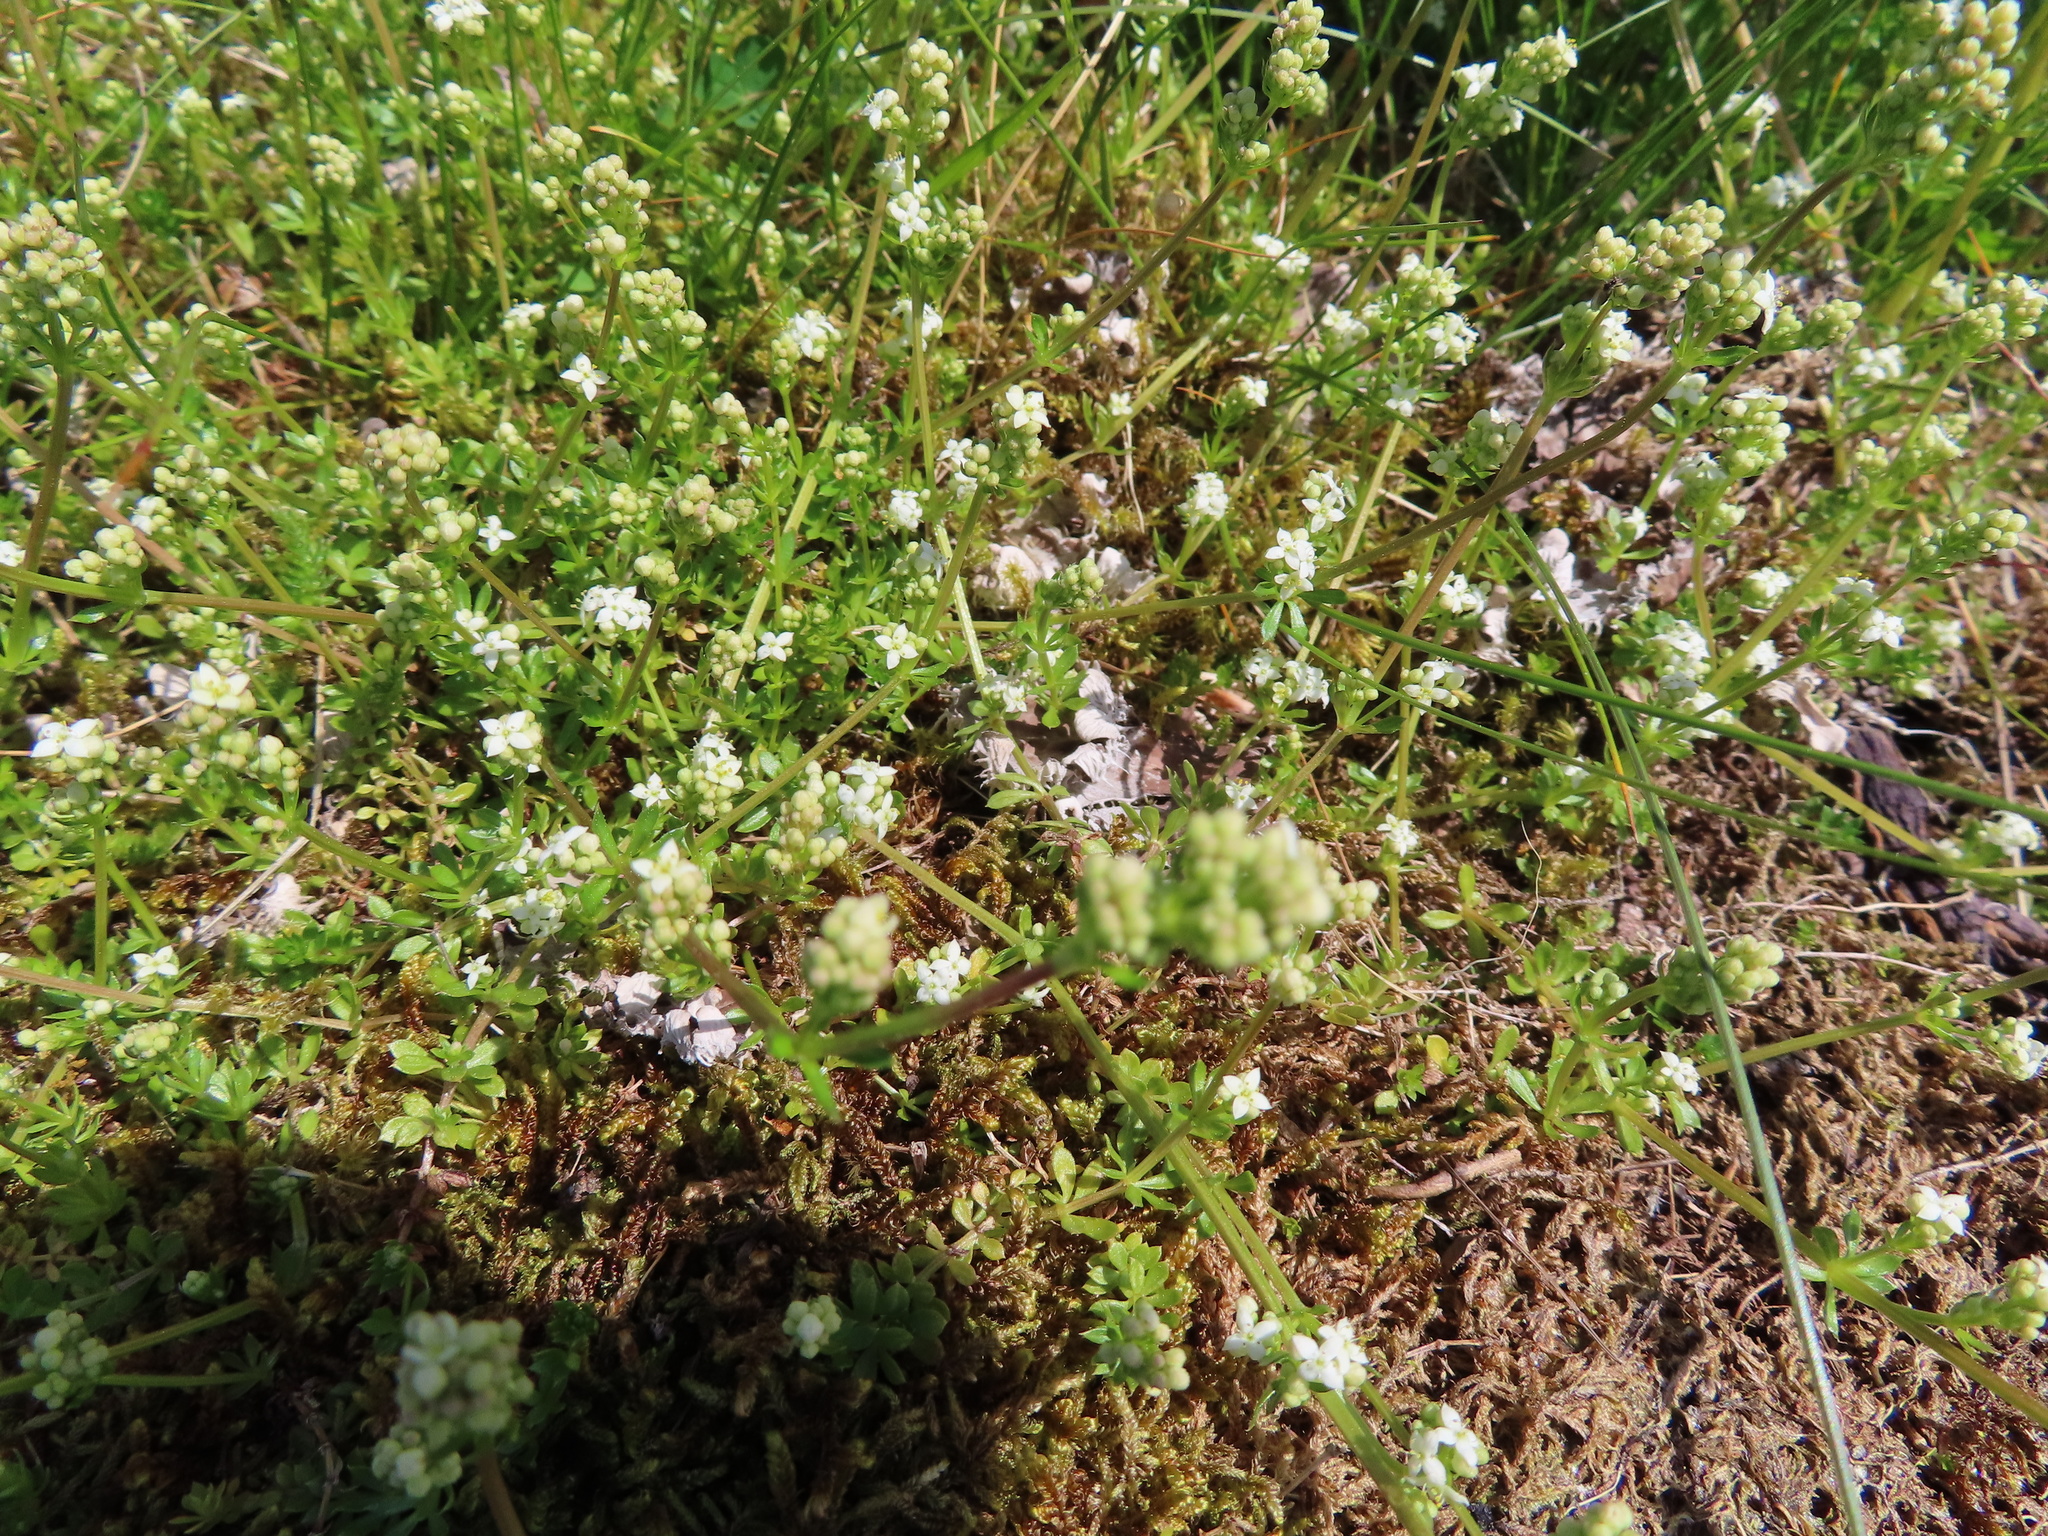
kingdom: Plantae
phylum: Tracheophyta
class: Magnoliopsida
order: Gentianales
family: Rubiaceae
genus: Galium
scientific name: Galium saxatile
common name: Heath bedstraw
